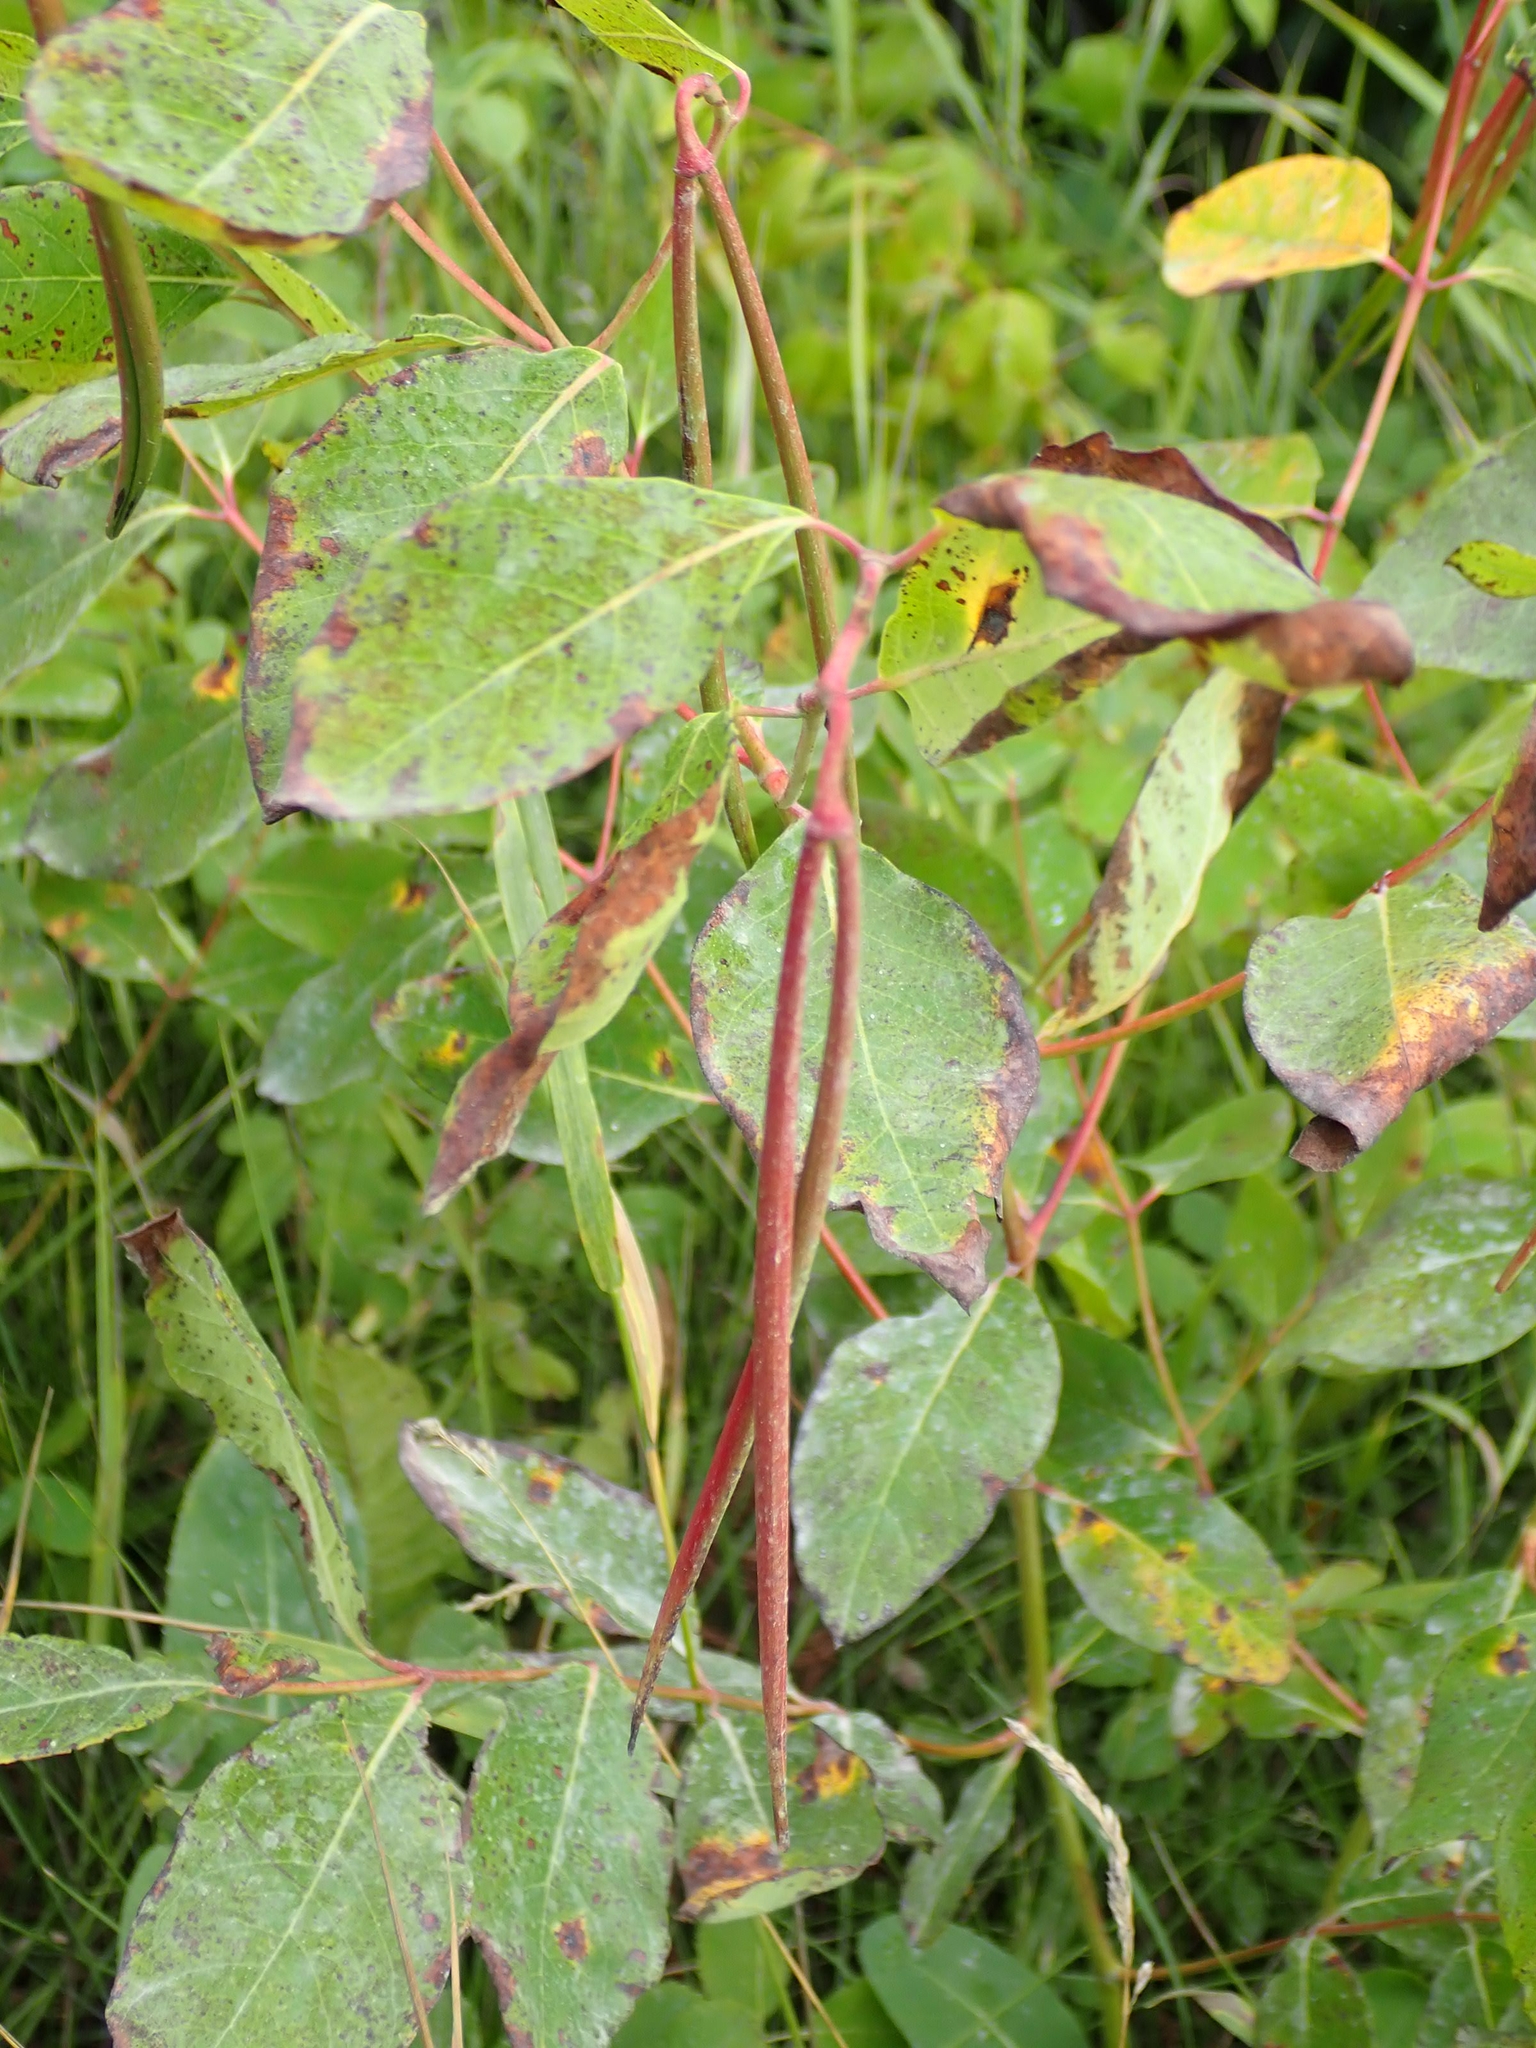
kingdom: Plantae
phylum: Tracheophyta
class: Magnoliopsida
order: Gentianales
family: Apocynaceae
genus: Apocynum
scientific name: Apocynum androsaemifolium
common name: Spreading dogbane
